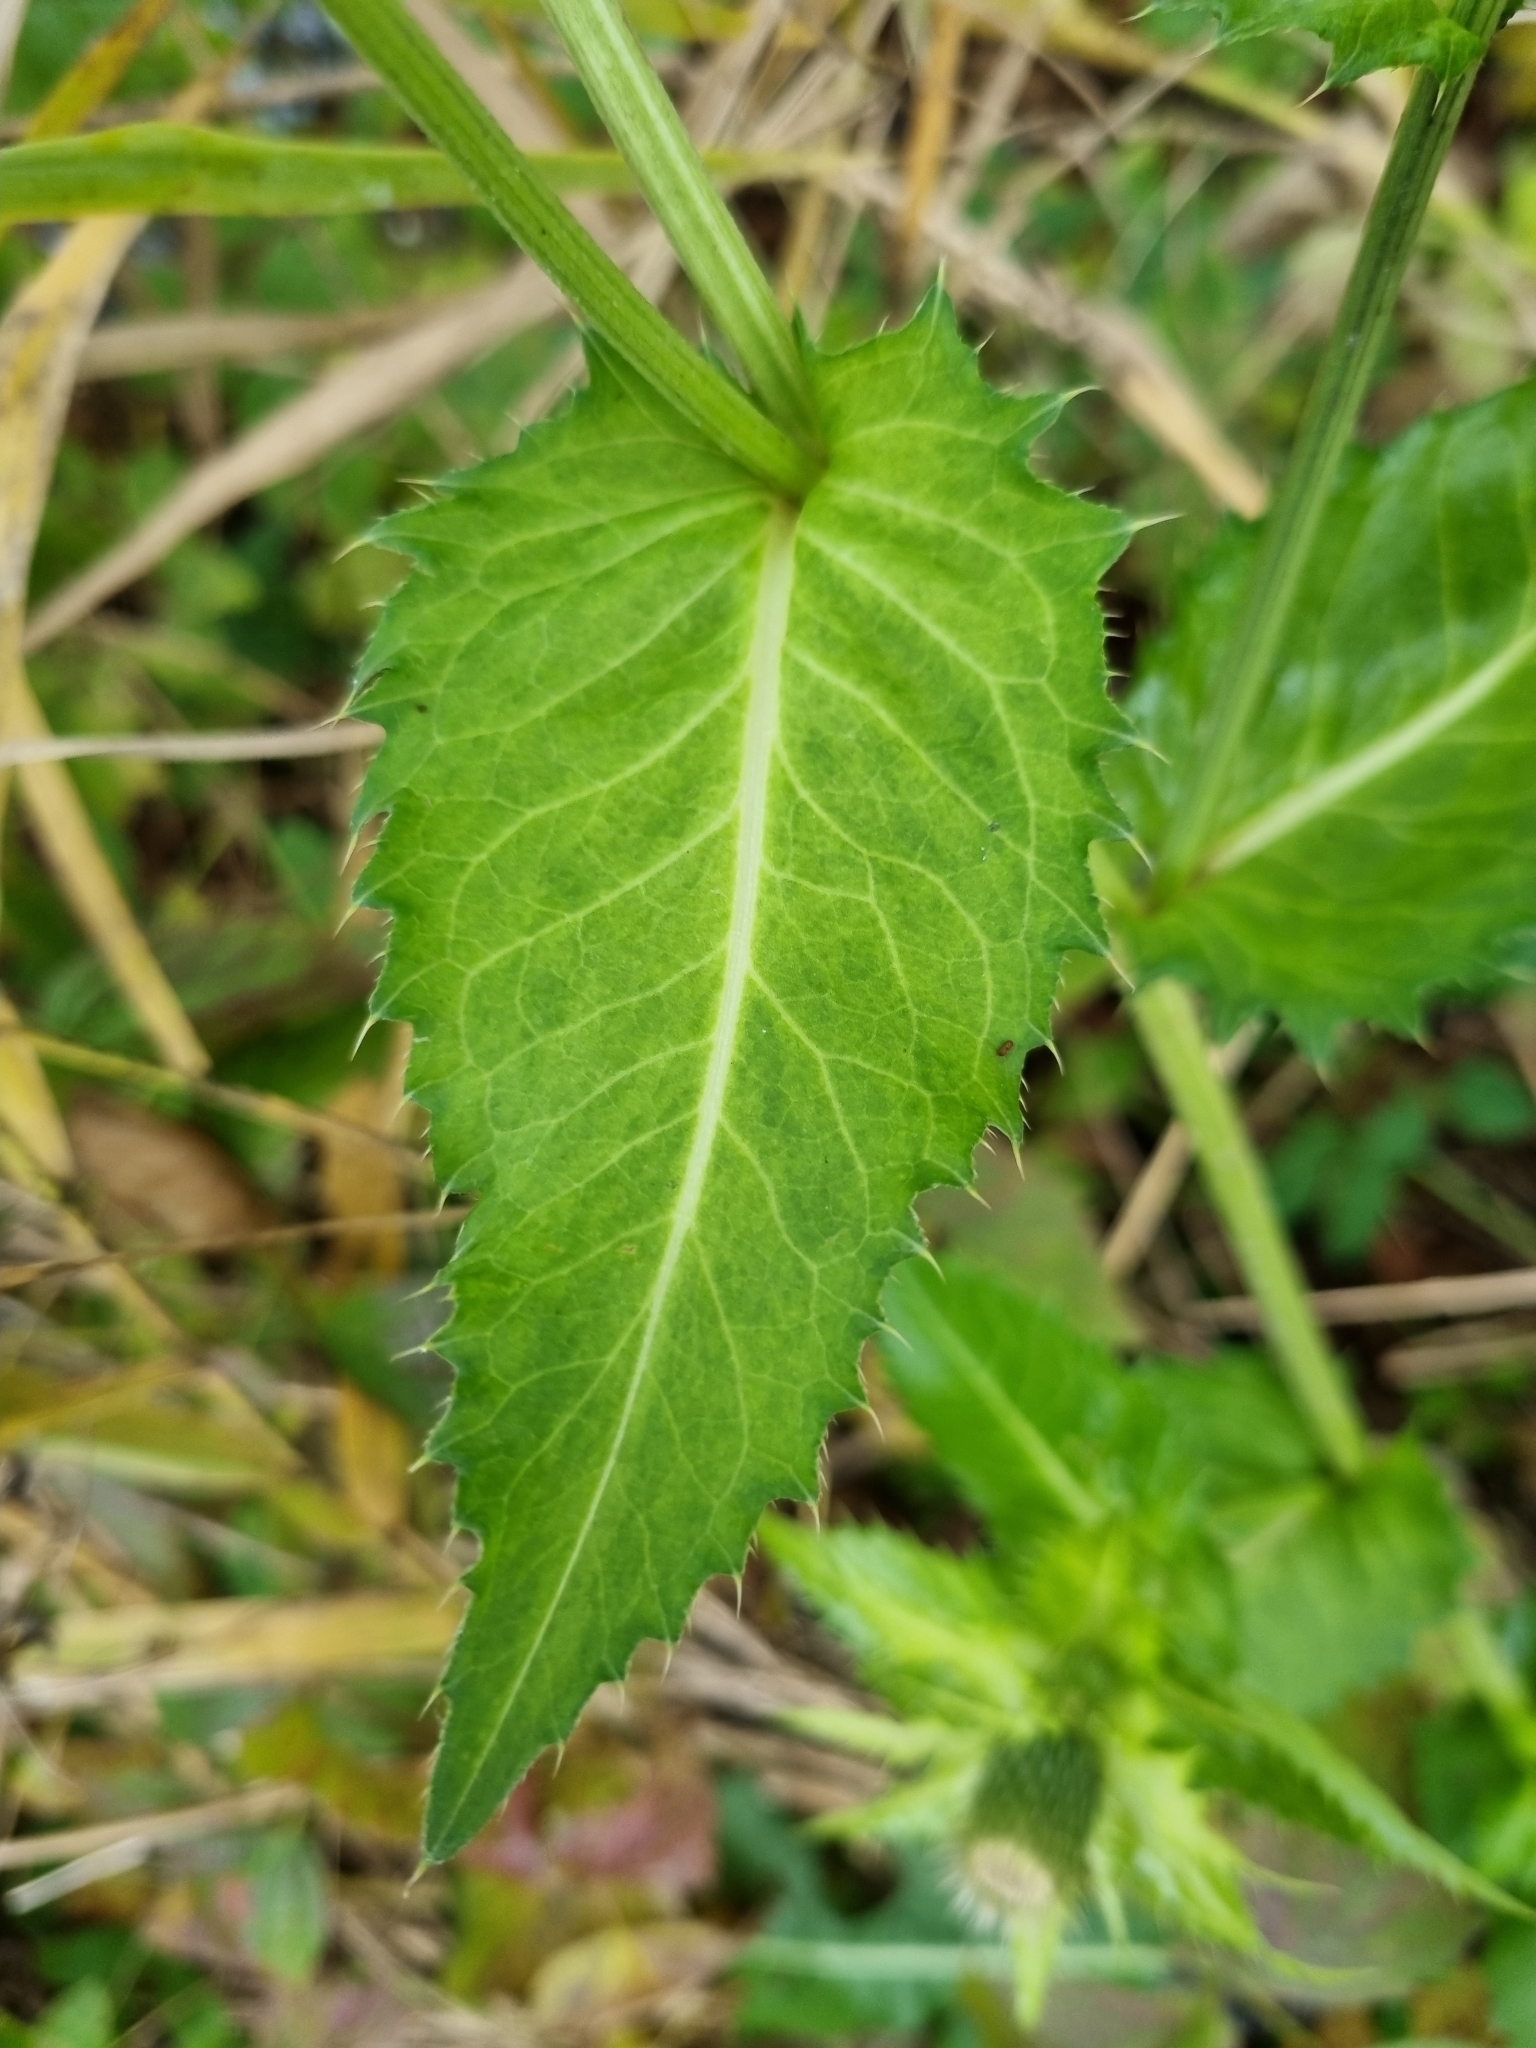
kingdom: Plantae
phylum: Tracheophyta
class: Magnoliopsida
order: Asterales
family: Asteraceae
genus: Cirsium
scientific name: Cirsium oleraceum
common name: Cabbage thistle
